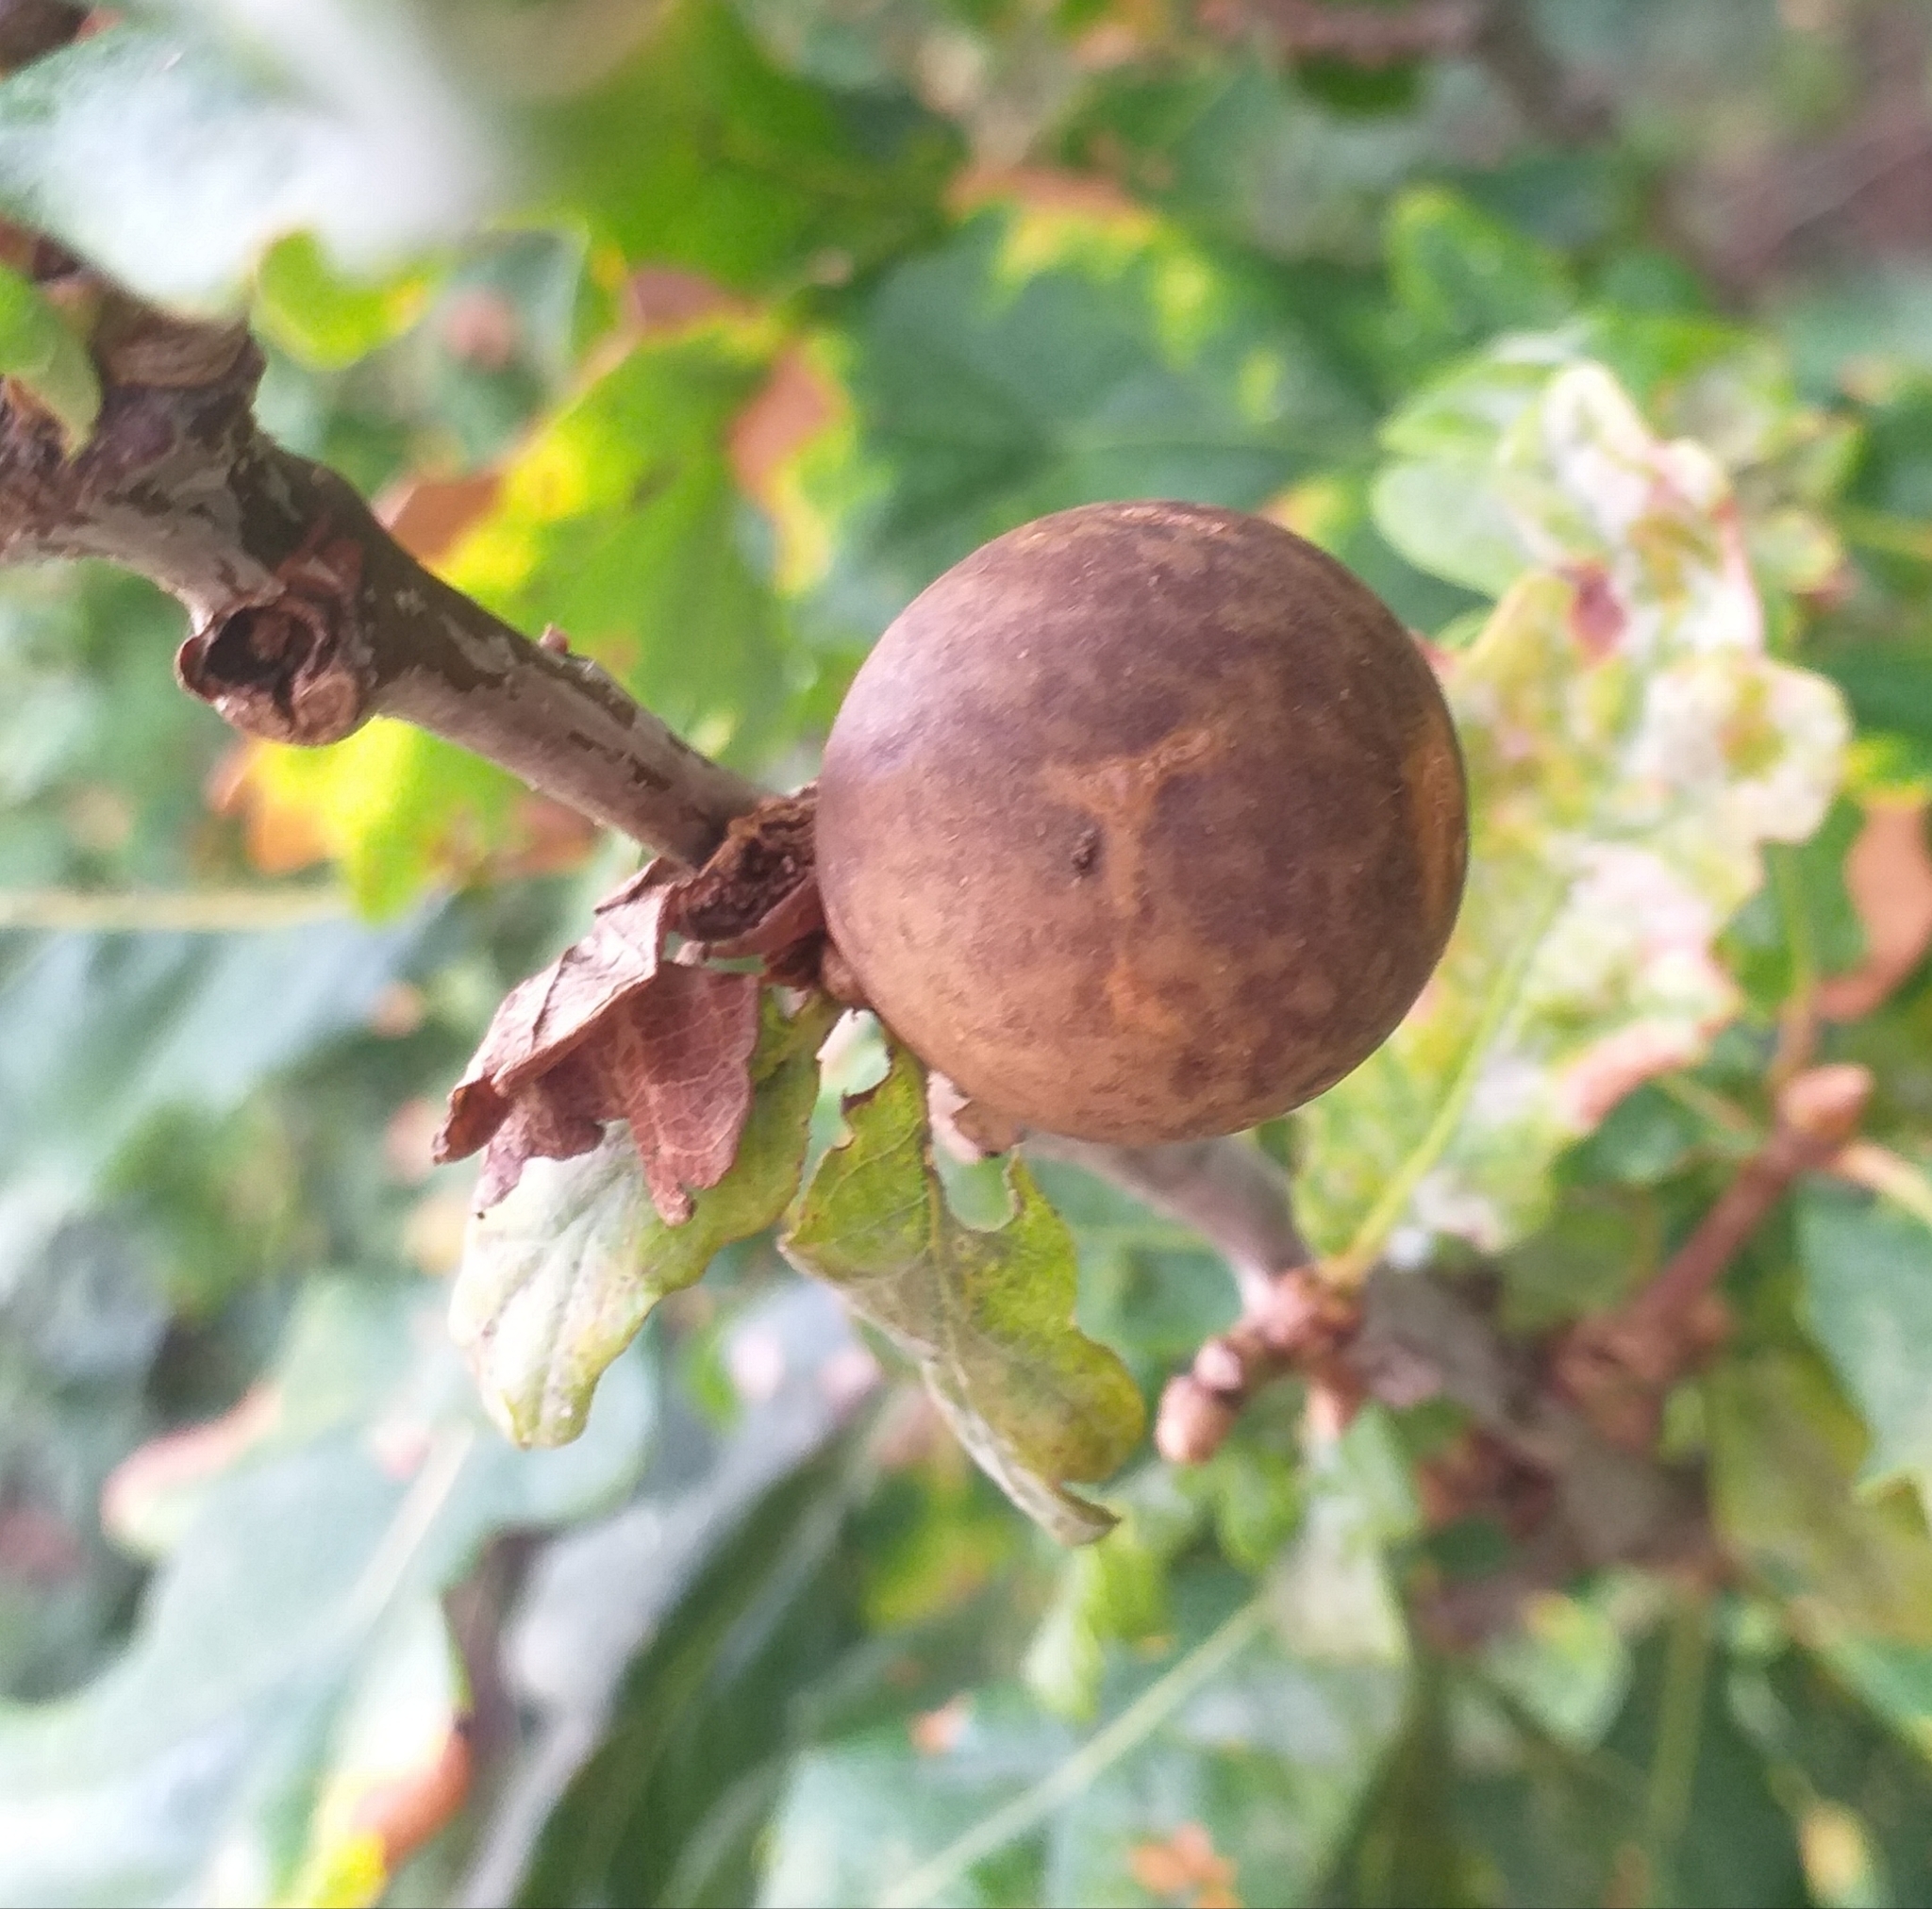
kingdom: Animalia
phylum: Arthropoda
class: Insecta
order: Hymenoptera
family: Cynipidae
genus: Andricus
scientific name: Andricus kollari
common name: Marble gall
